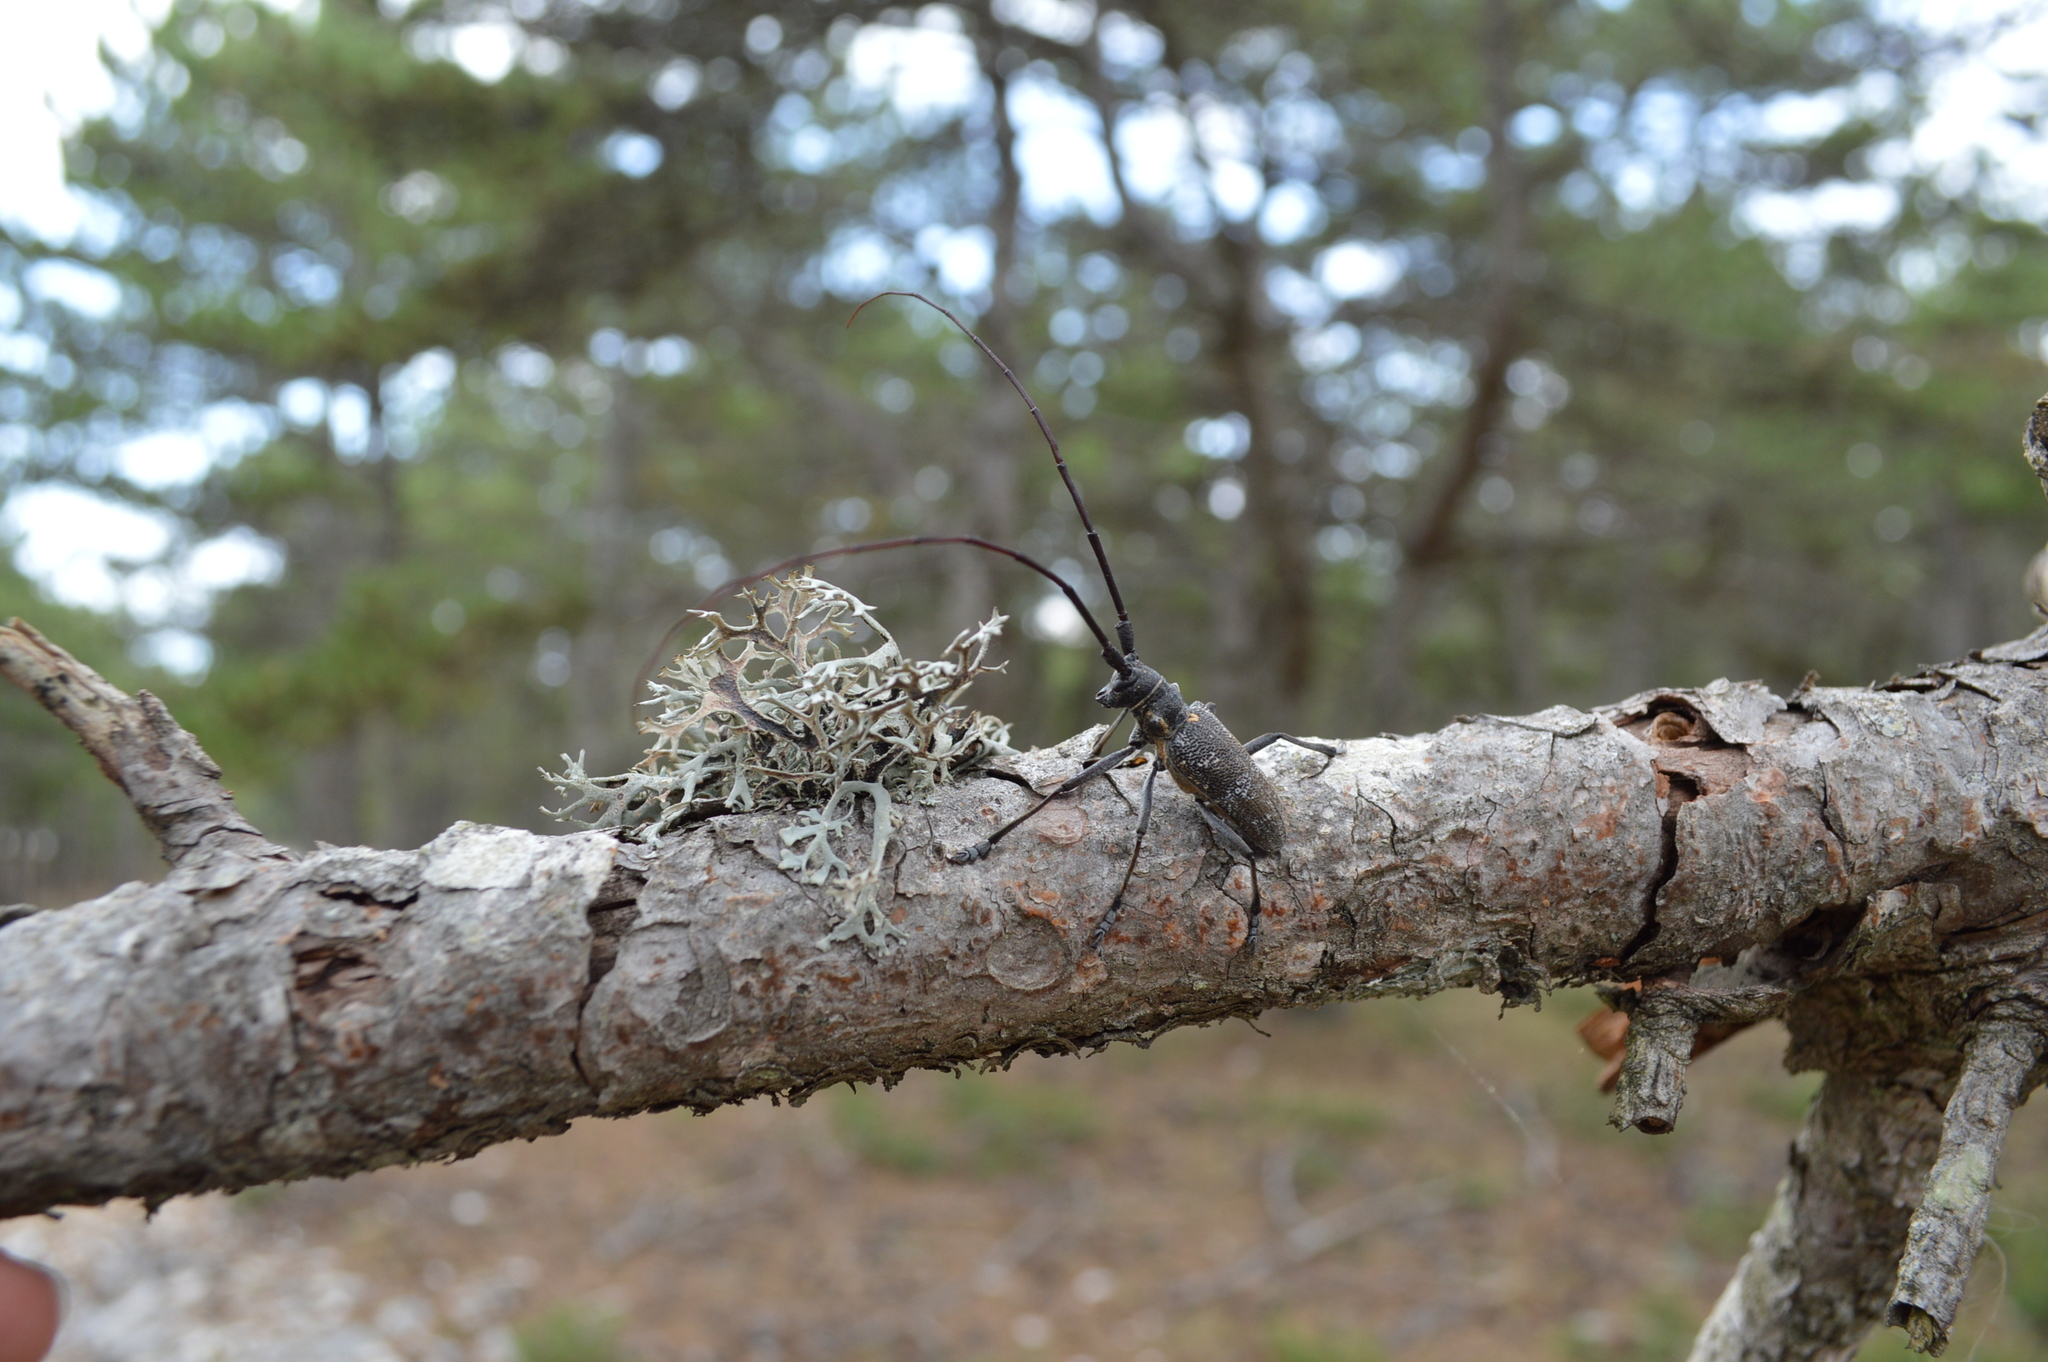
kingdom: Animalia
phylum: Arthropoda
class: Insecta
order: Coleoptera
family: Cerambycidae
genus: Monochamus
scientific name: Monochamus galloprovincialis
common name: Pine sawyer
